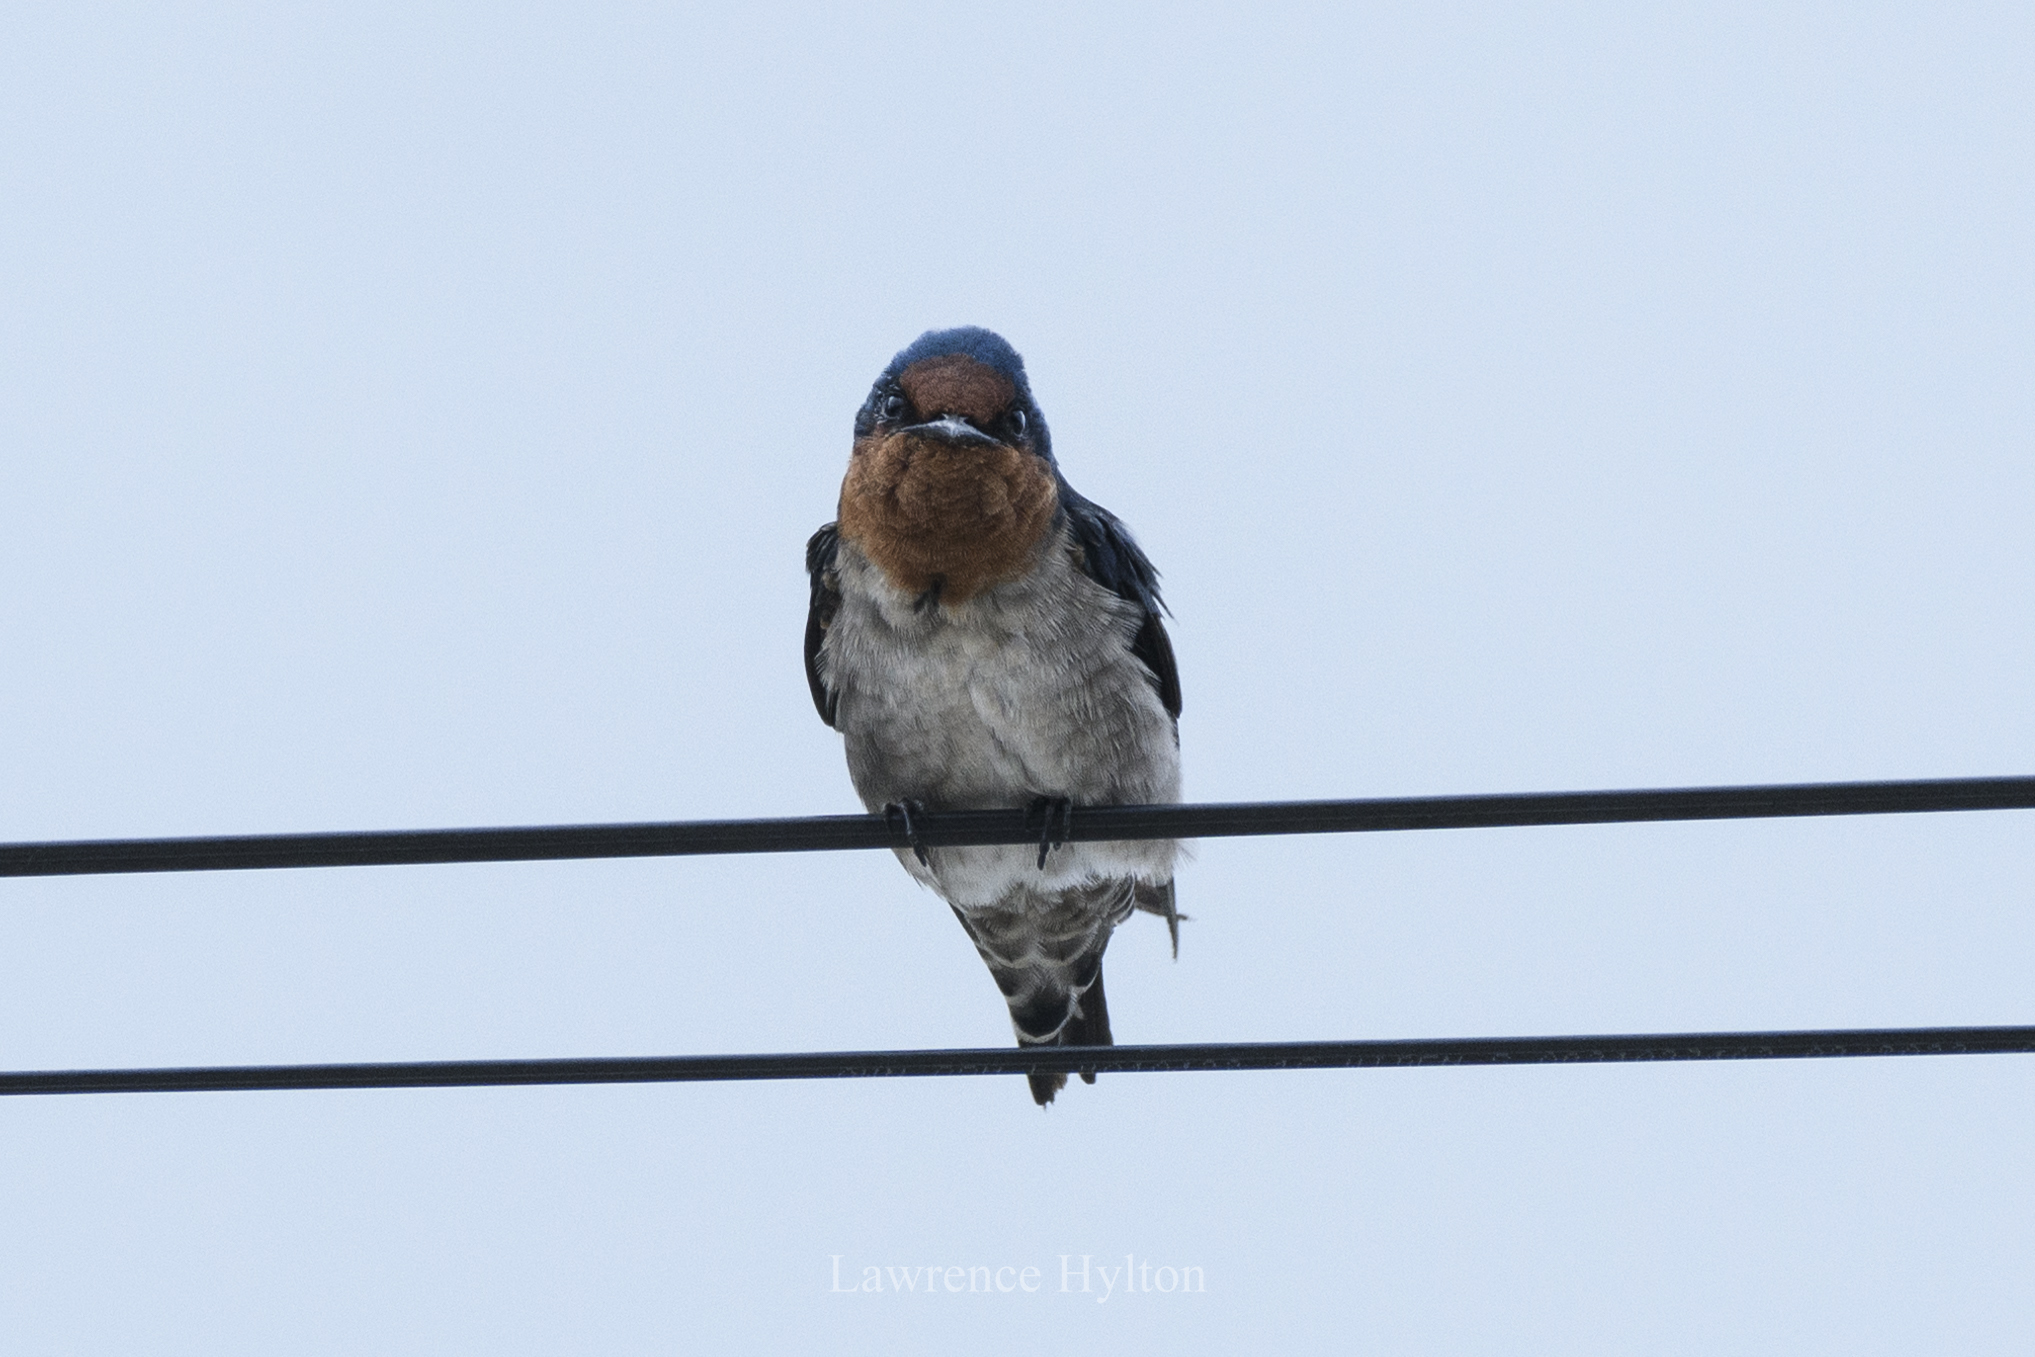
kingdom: Animalia
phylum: Chordata
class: Aves
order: Passeriformes
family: Hirundinidae
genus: Hirundo
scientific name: Hirundo tahitica
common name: Pacific swallow
